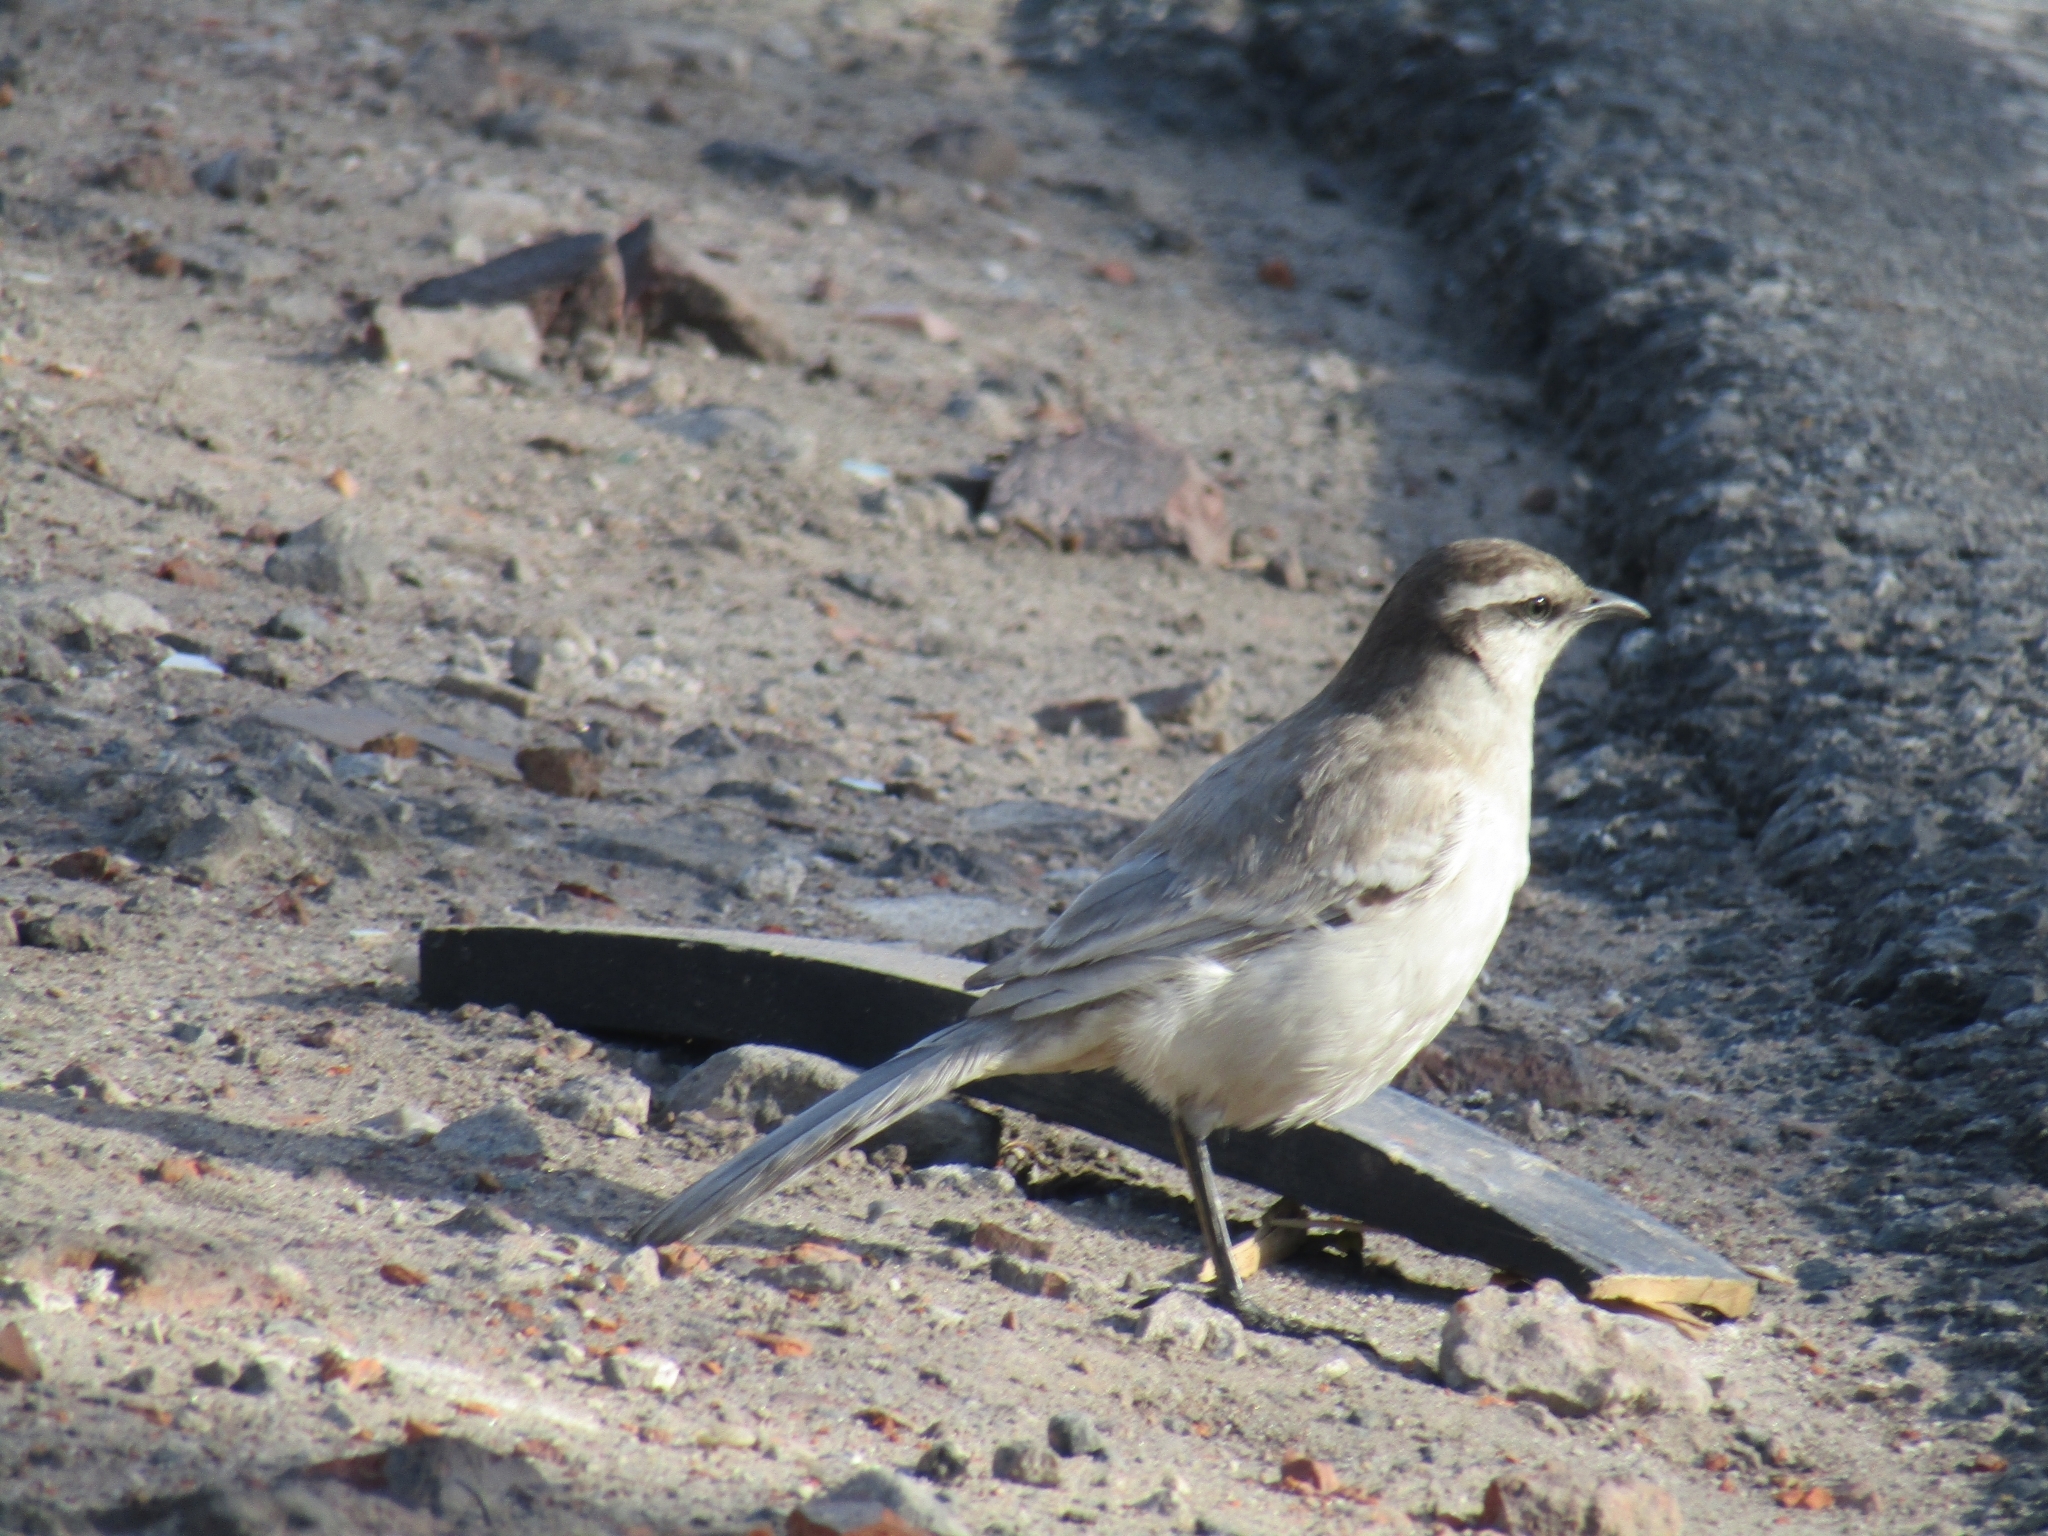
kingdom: Animalia
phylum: Chordata
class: Aves
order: Passeriformes
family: Mimidae
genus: Mimus
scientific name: Mimus saturninus
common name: Chalk-browed mockingbird
